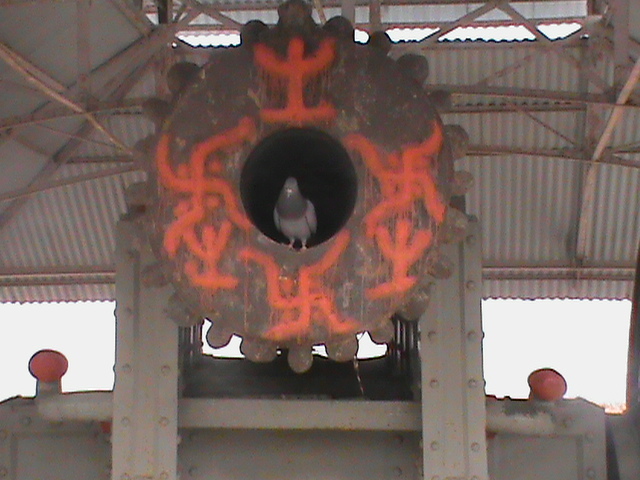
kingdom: Animalia
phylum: Chordata
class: Aves
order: Columbiformes
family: Columbidae
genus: Columba
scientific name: Columba livia
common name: Rock pigeon
